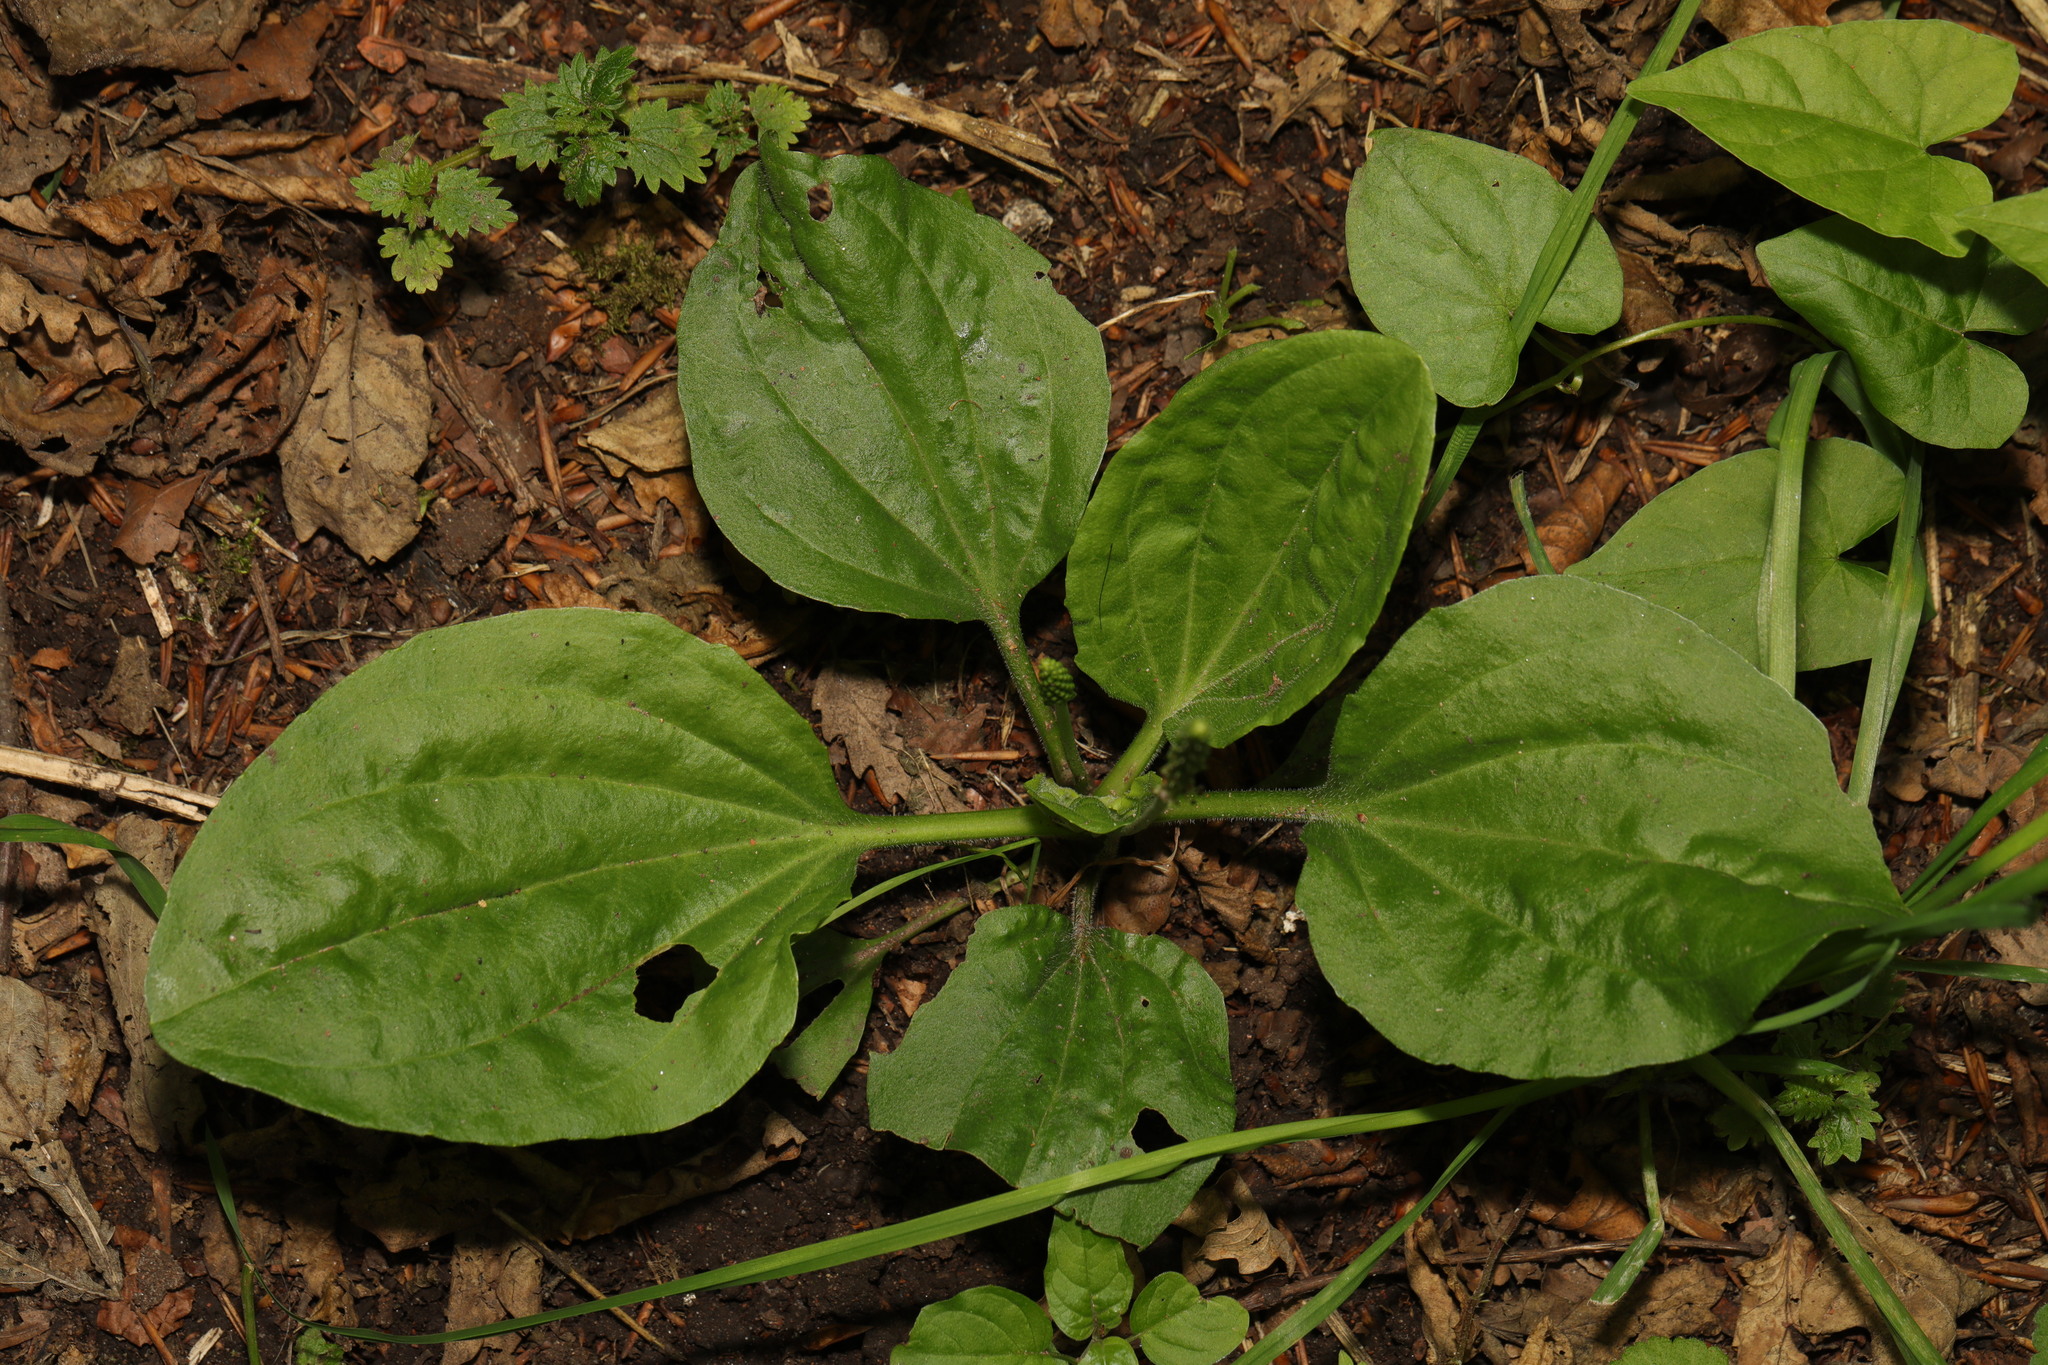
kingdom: Plantae
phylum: Tracheophyta
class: Magnoliopsida
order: Lamiales
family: Plantaginaceae
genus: Plantago
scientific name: Plantago major
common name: Common plantain
